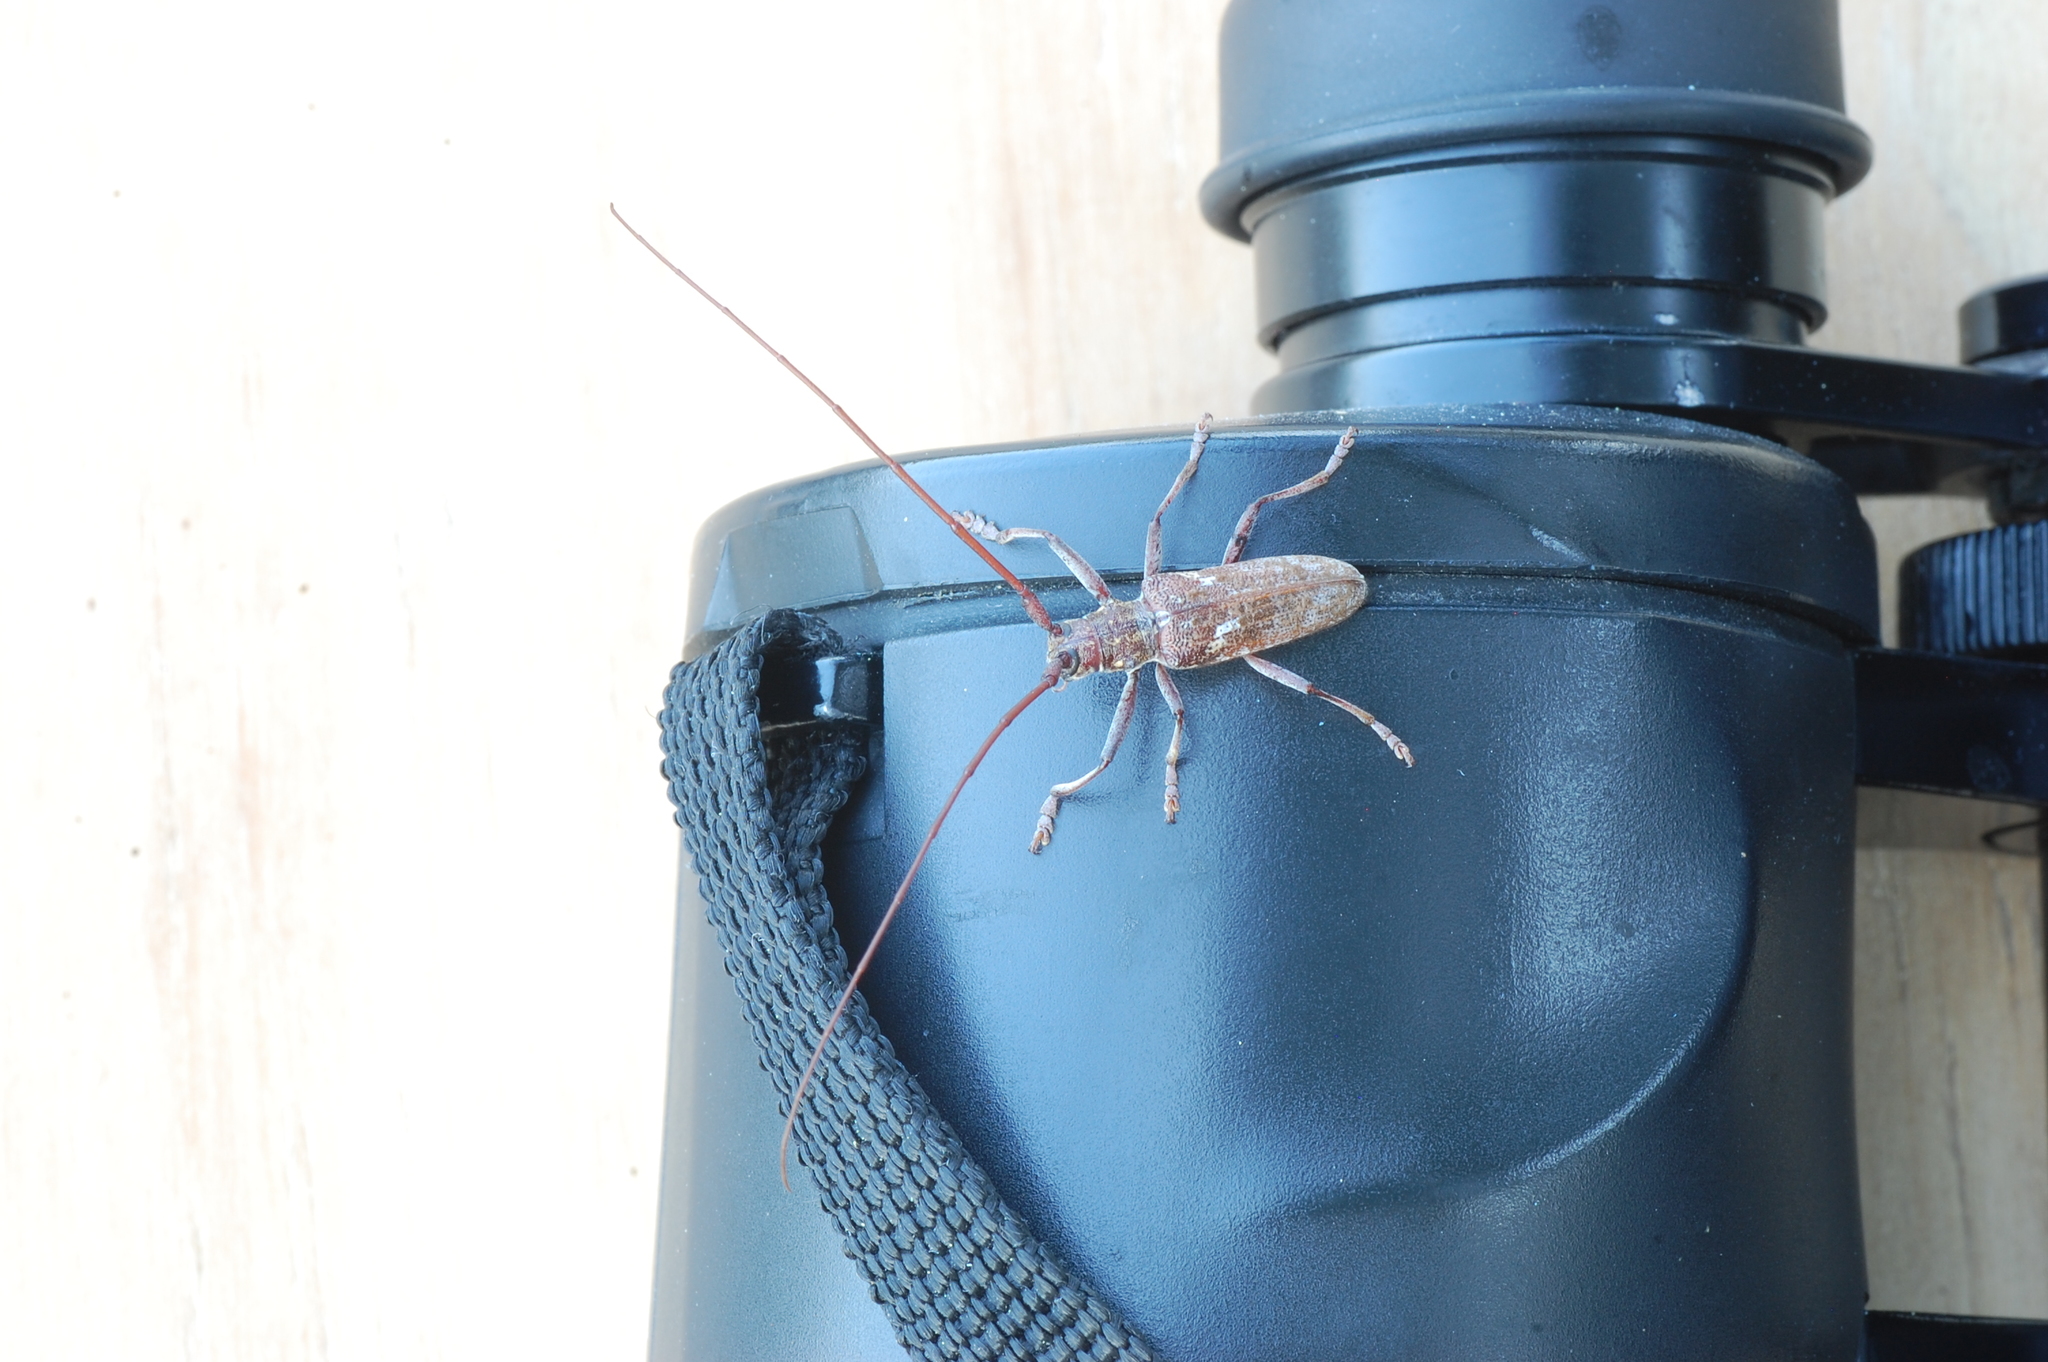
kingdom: Animalia
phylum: Arthropoda
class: Insecta
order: Coleoptera
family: Cerambycidae
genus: Monochamus
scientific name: Monochamus carolinensis
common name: Carolina pine sawyer
